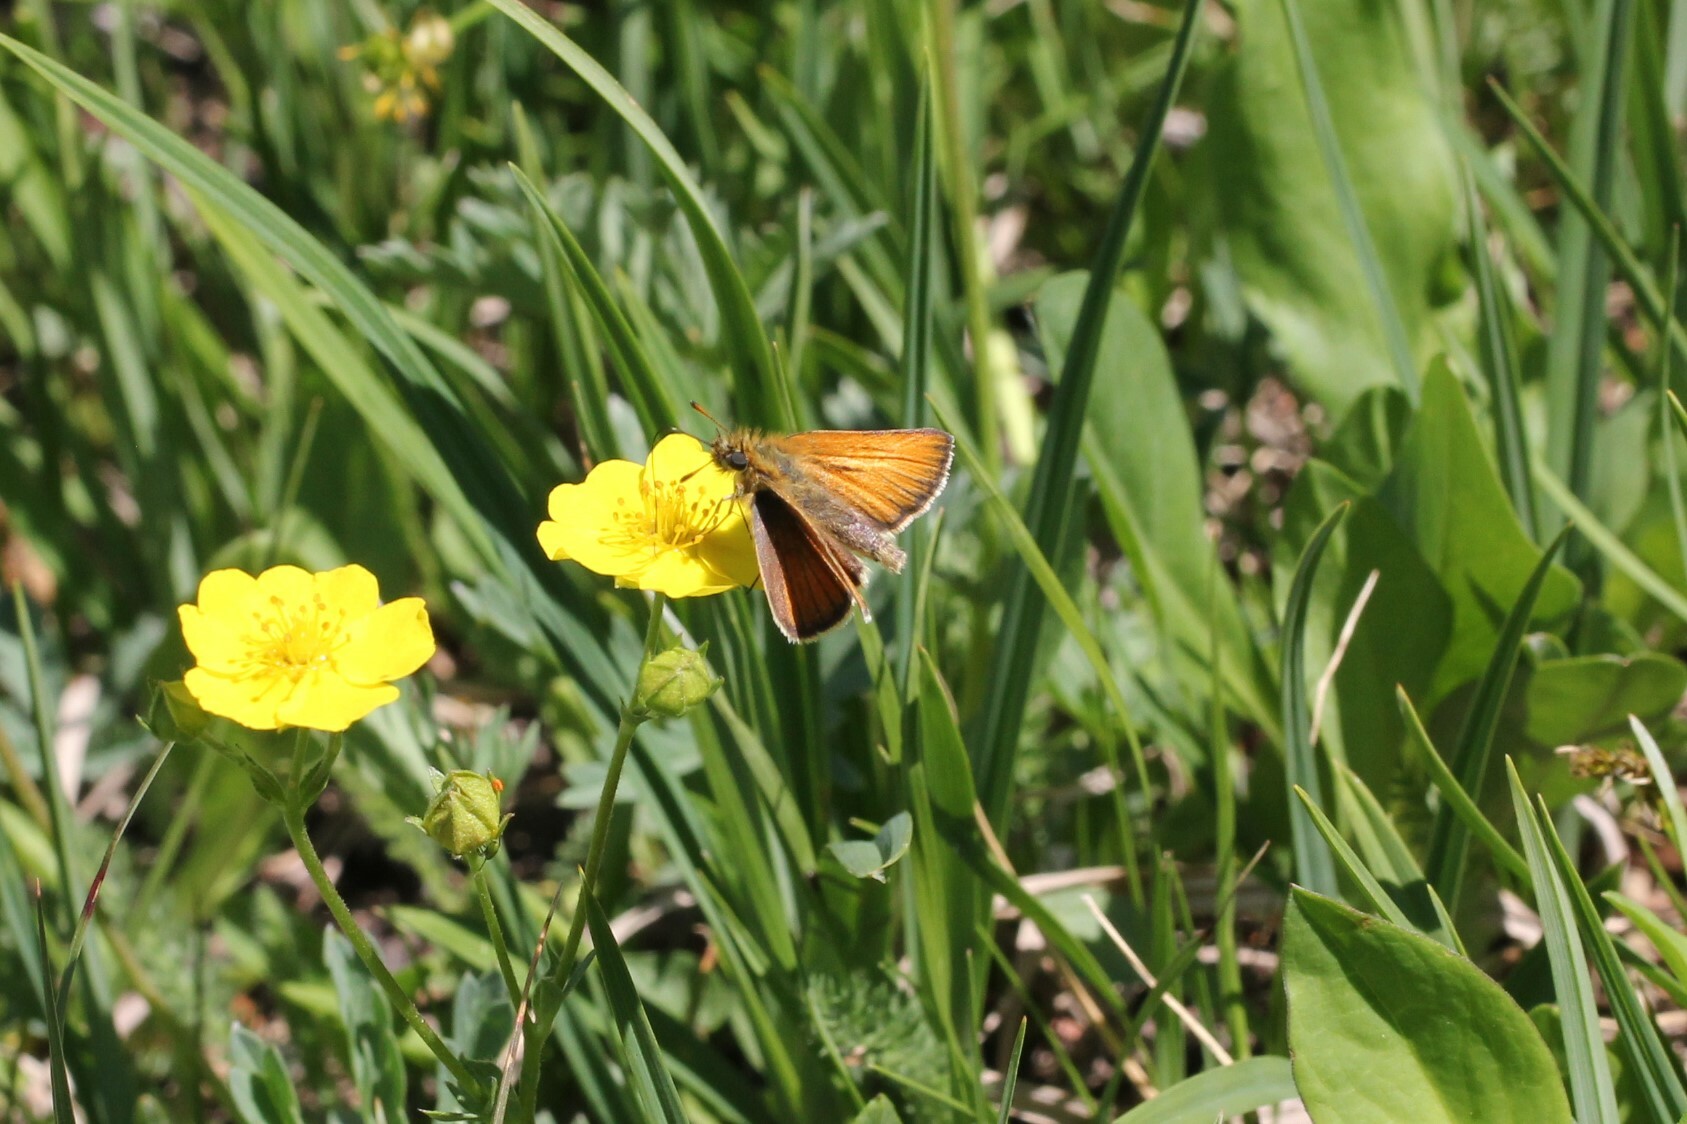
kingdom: Animalia
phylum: Arthropoda
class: Insecta
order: Lepidoptera
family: Hesperiidae
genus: Thymelicus
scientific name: Thymelicus lineola
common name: Essex skipper
